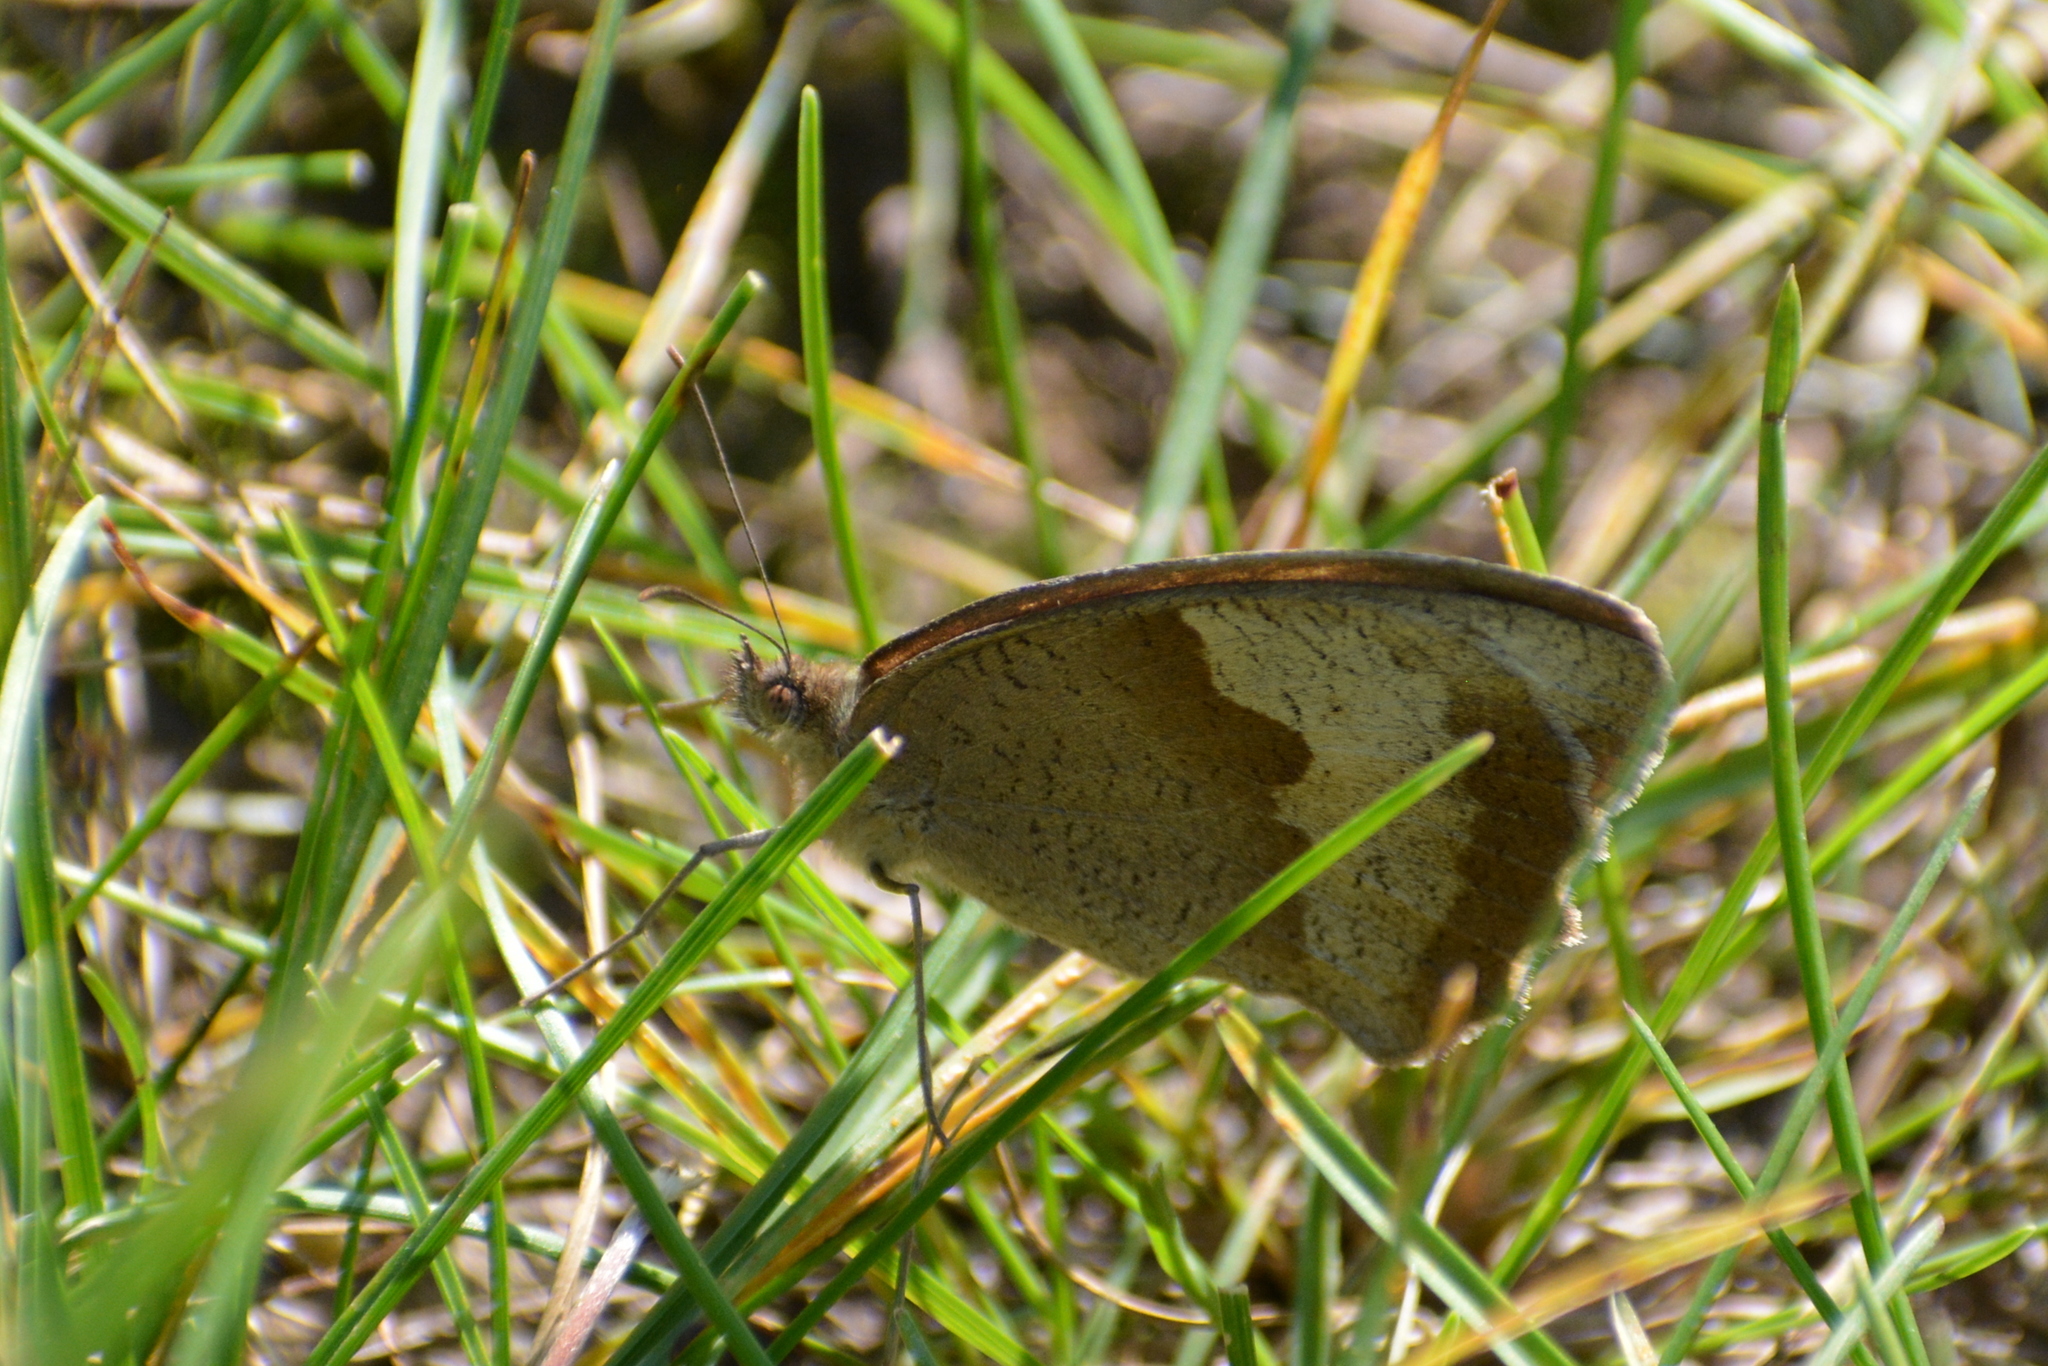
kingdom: Animalia
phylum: Arthropoda
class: Insecta
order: Lepidoptera
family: Nymphalidae
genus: Maniola
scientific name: Maniola jurtina
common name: Meadow brown
